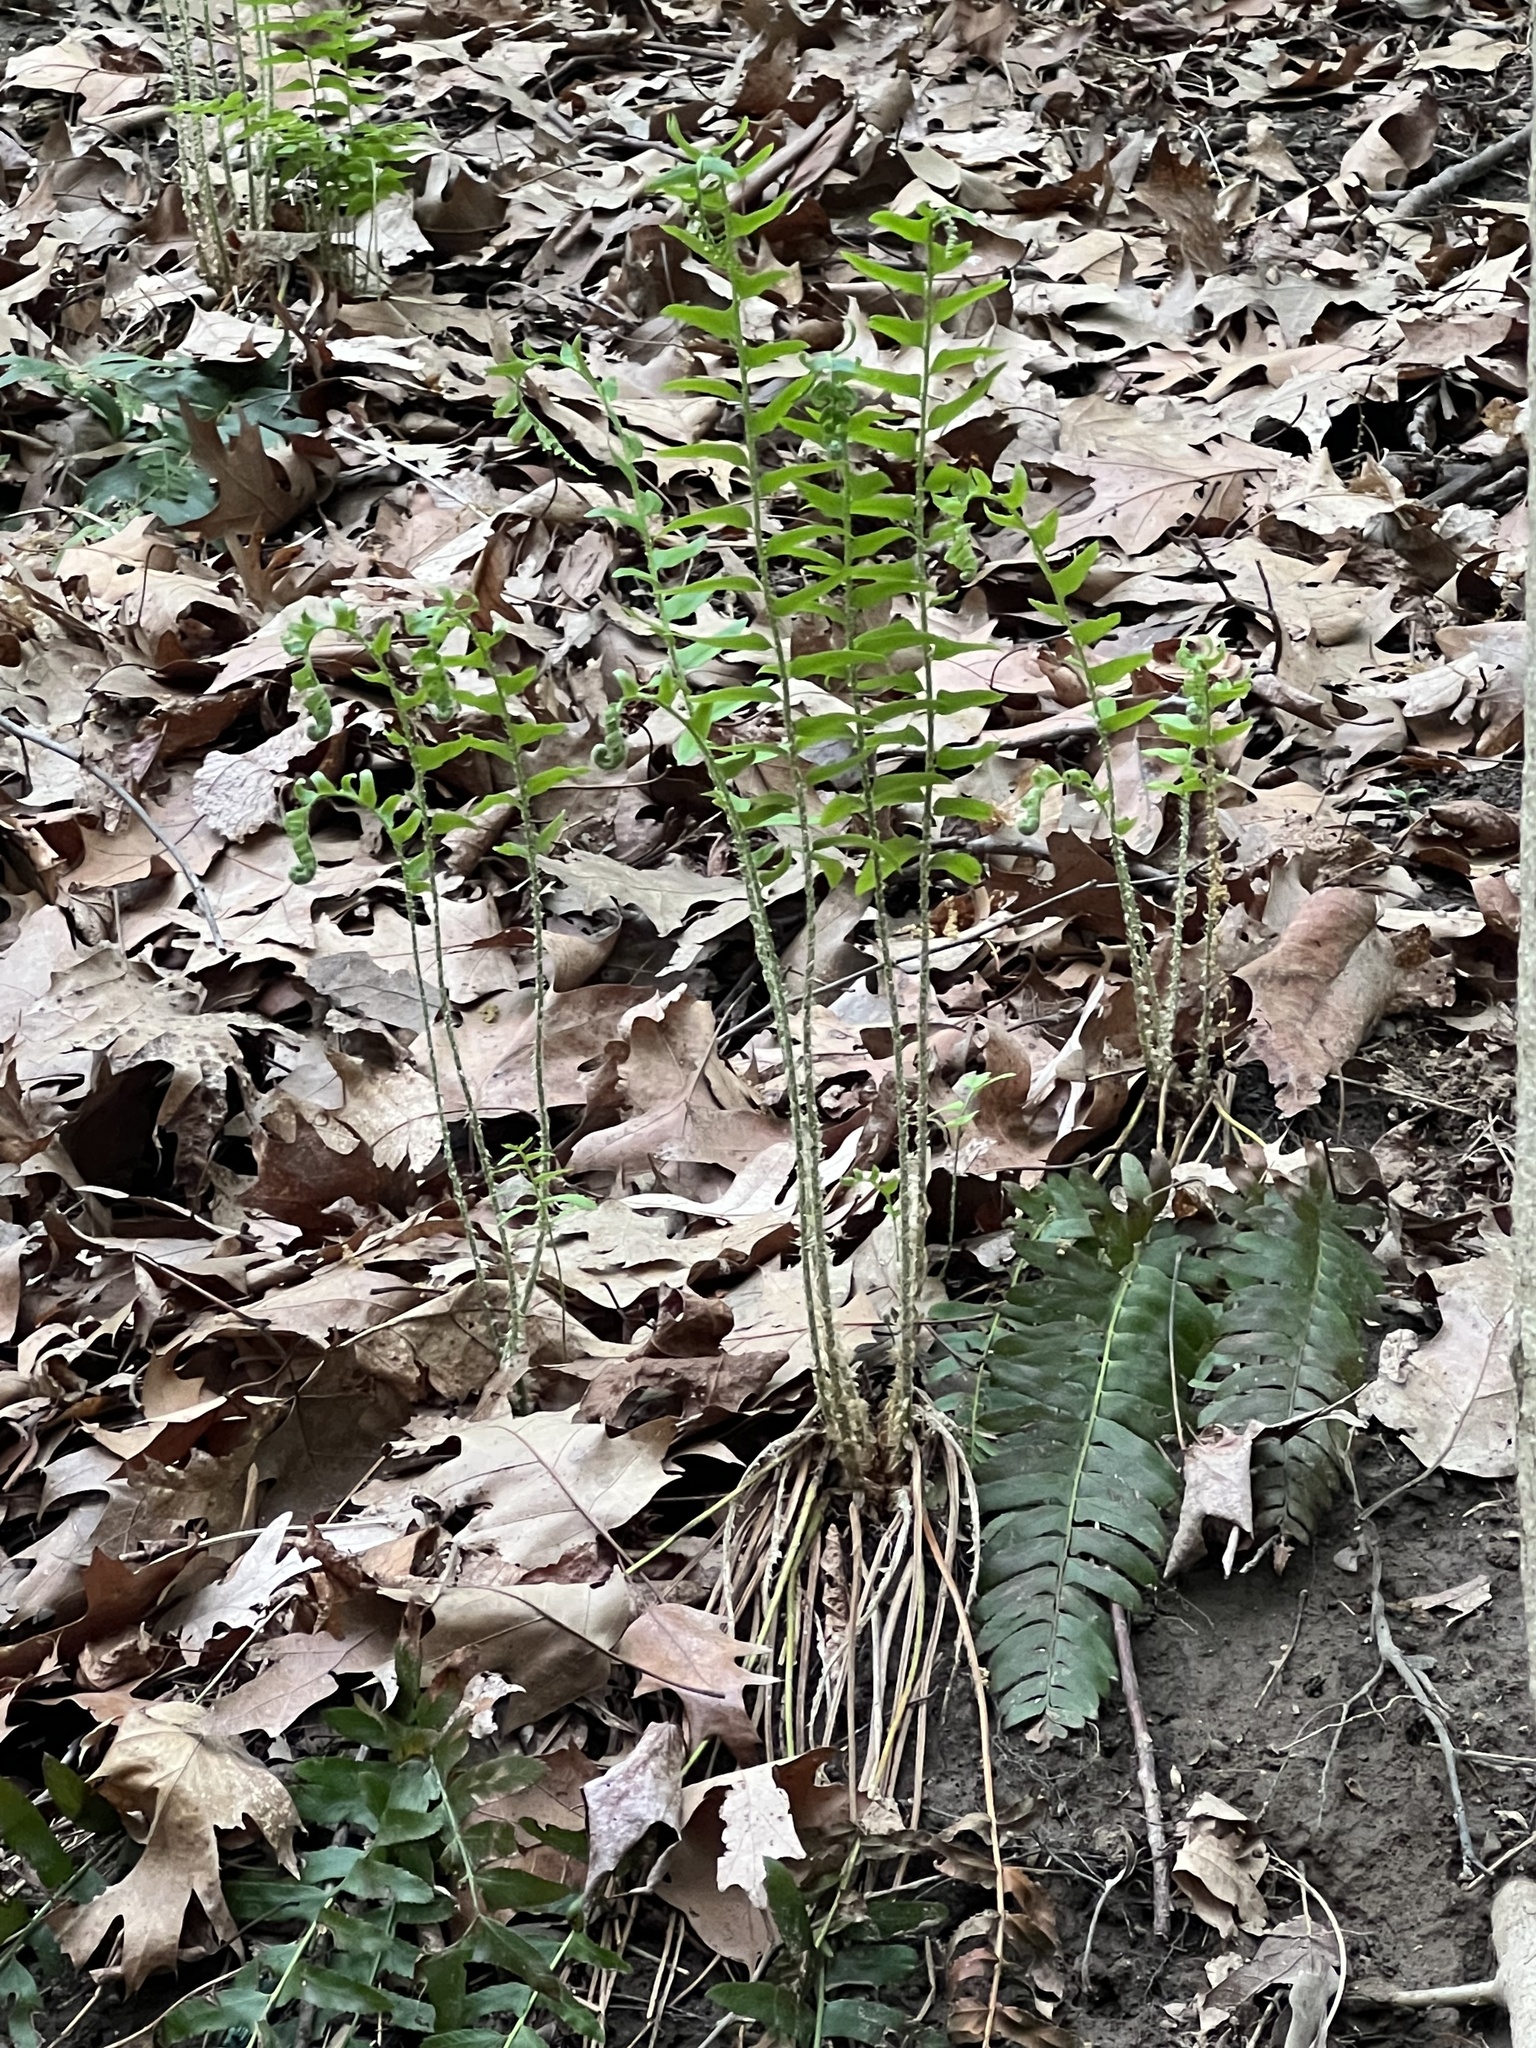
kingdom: Plantae
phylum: Tracheophyta
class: Polypodiopsida
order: Polypodiales
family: Dryopteridaceae
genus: Polystichum
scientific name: Polystichum acrostichoides
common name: Christmas fern
